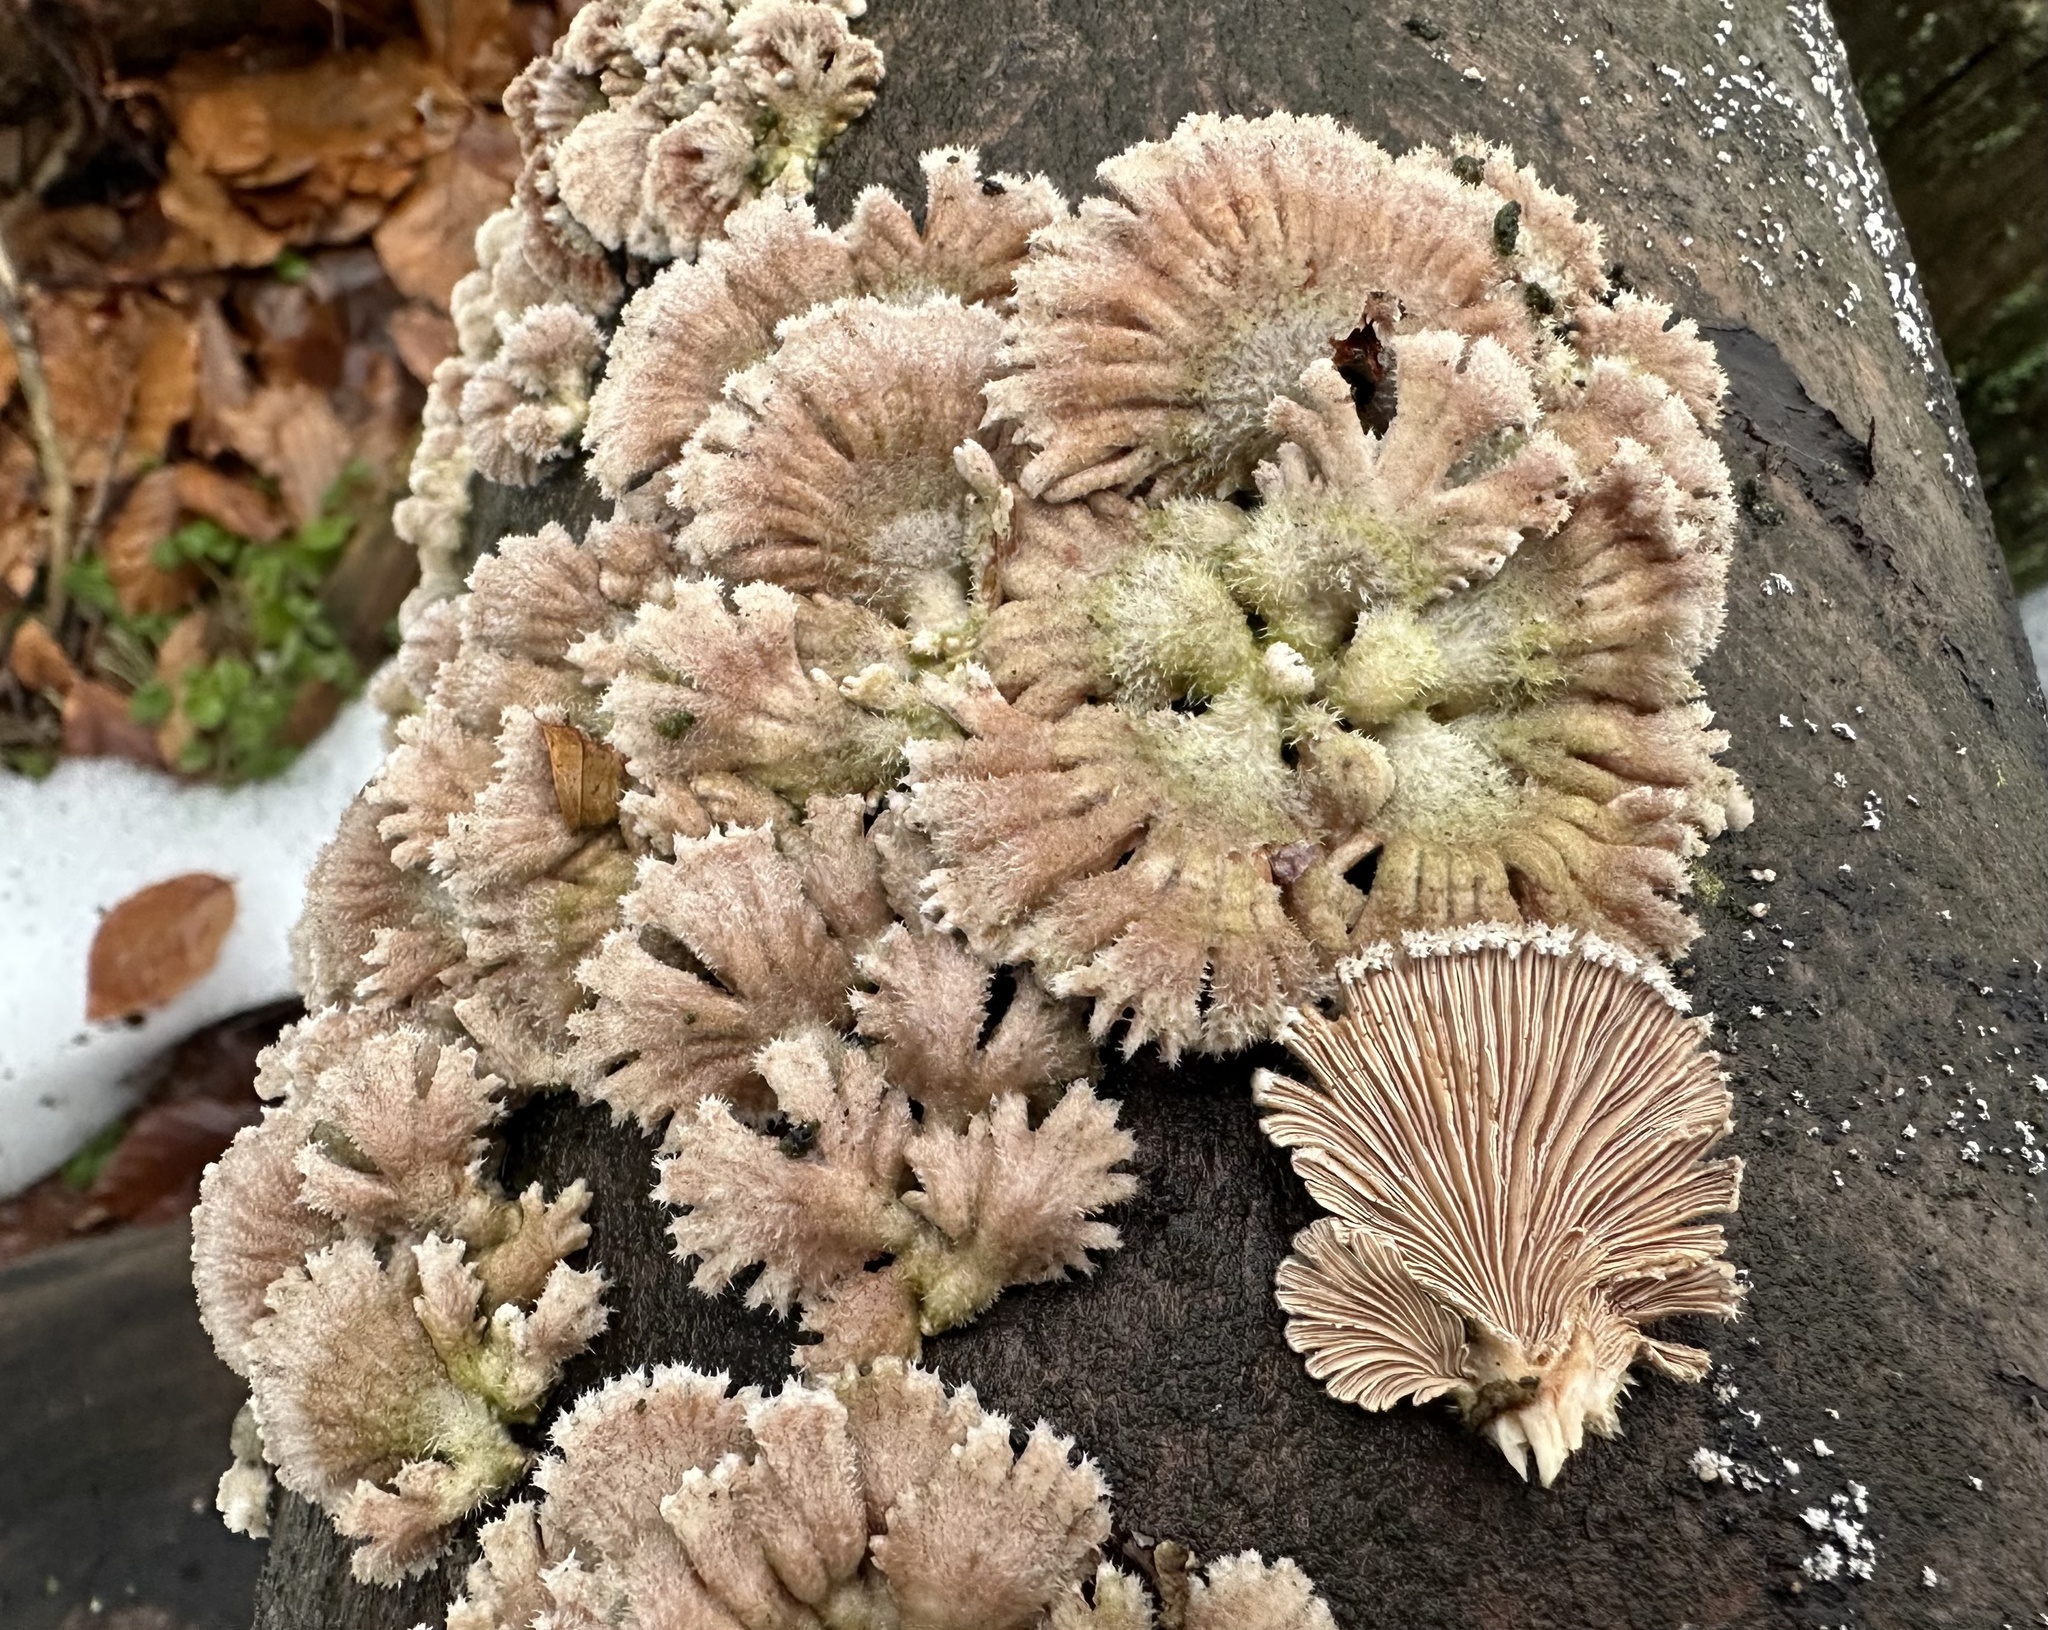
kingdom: Fungi
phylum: Basidiomycota
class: Agaricomycetes
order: Agaricales
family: Schizophyllaceae
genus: Schizophyllum
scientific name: Schizophyllum commune
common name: Common porecrust
